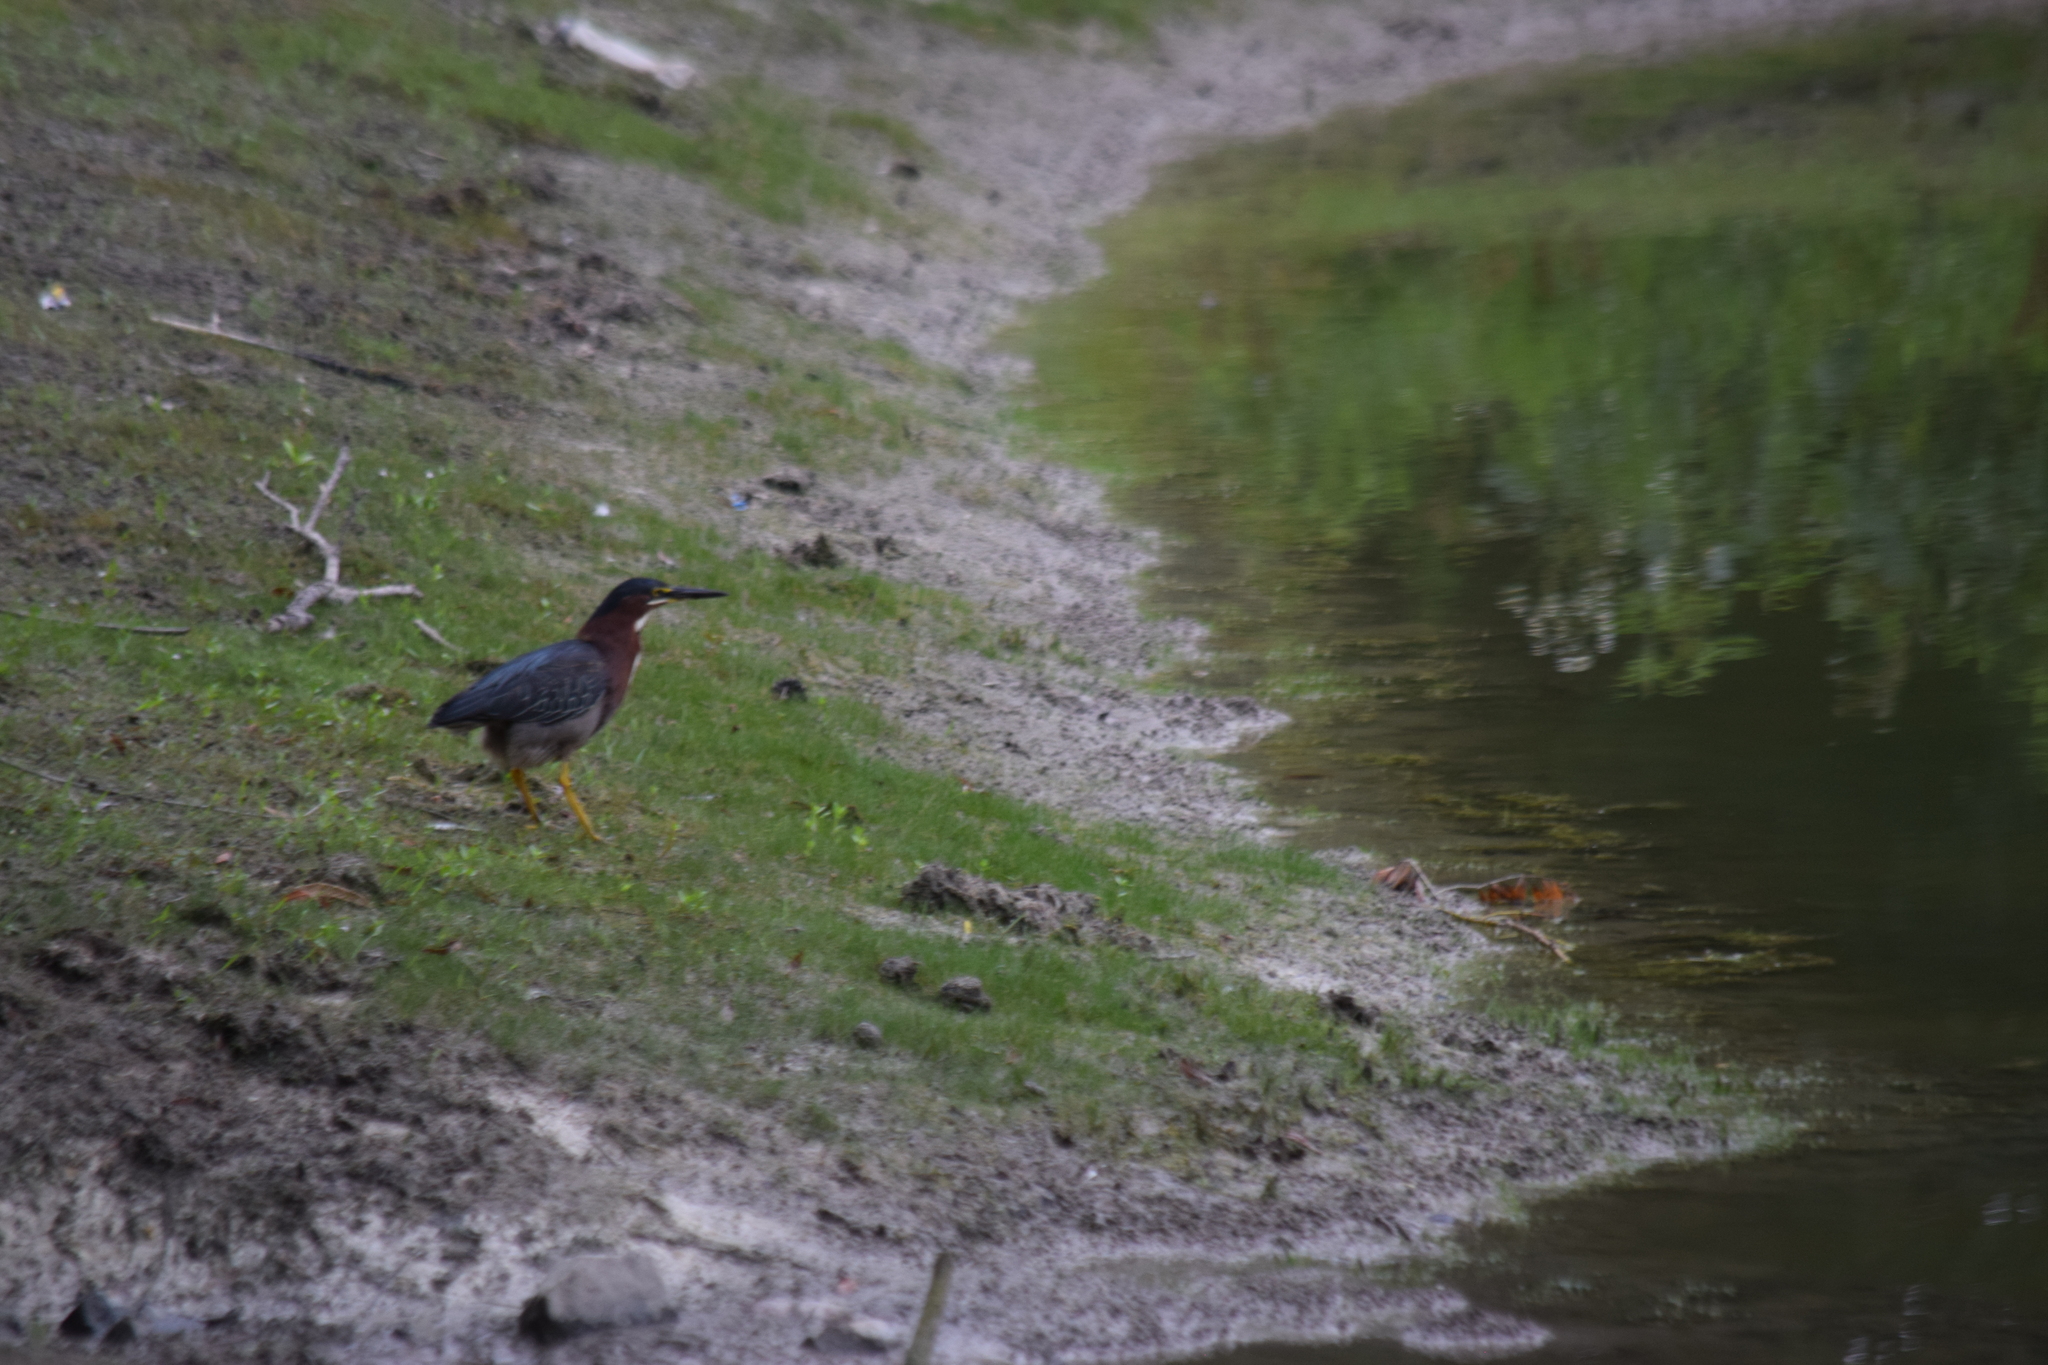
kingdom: Animalia
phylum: Chordata
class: Aves
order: Pelecaniformes
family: Ardeidae
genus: Butorides
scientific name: Butorides virescens
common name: Green heron
